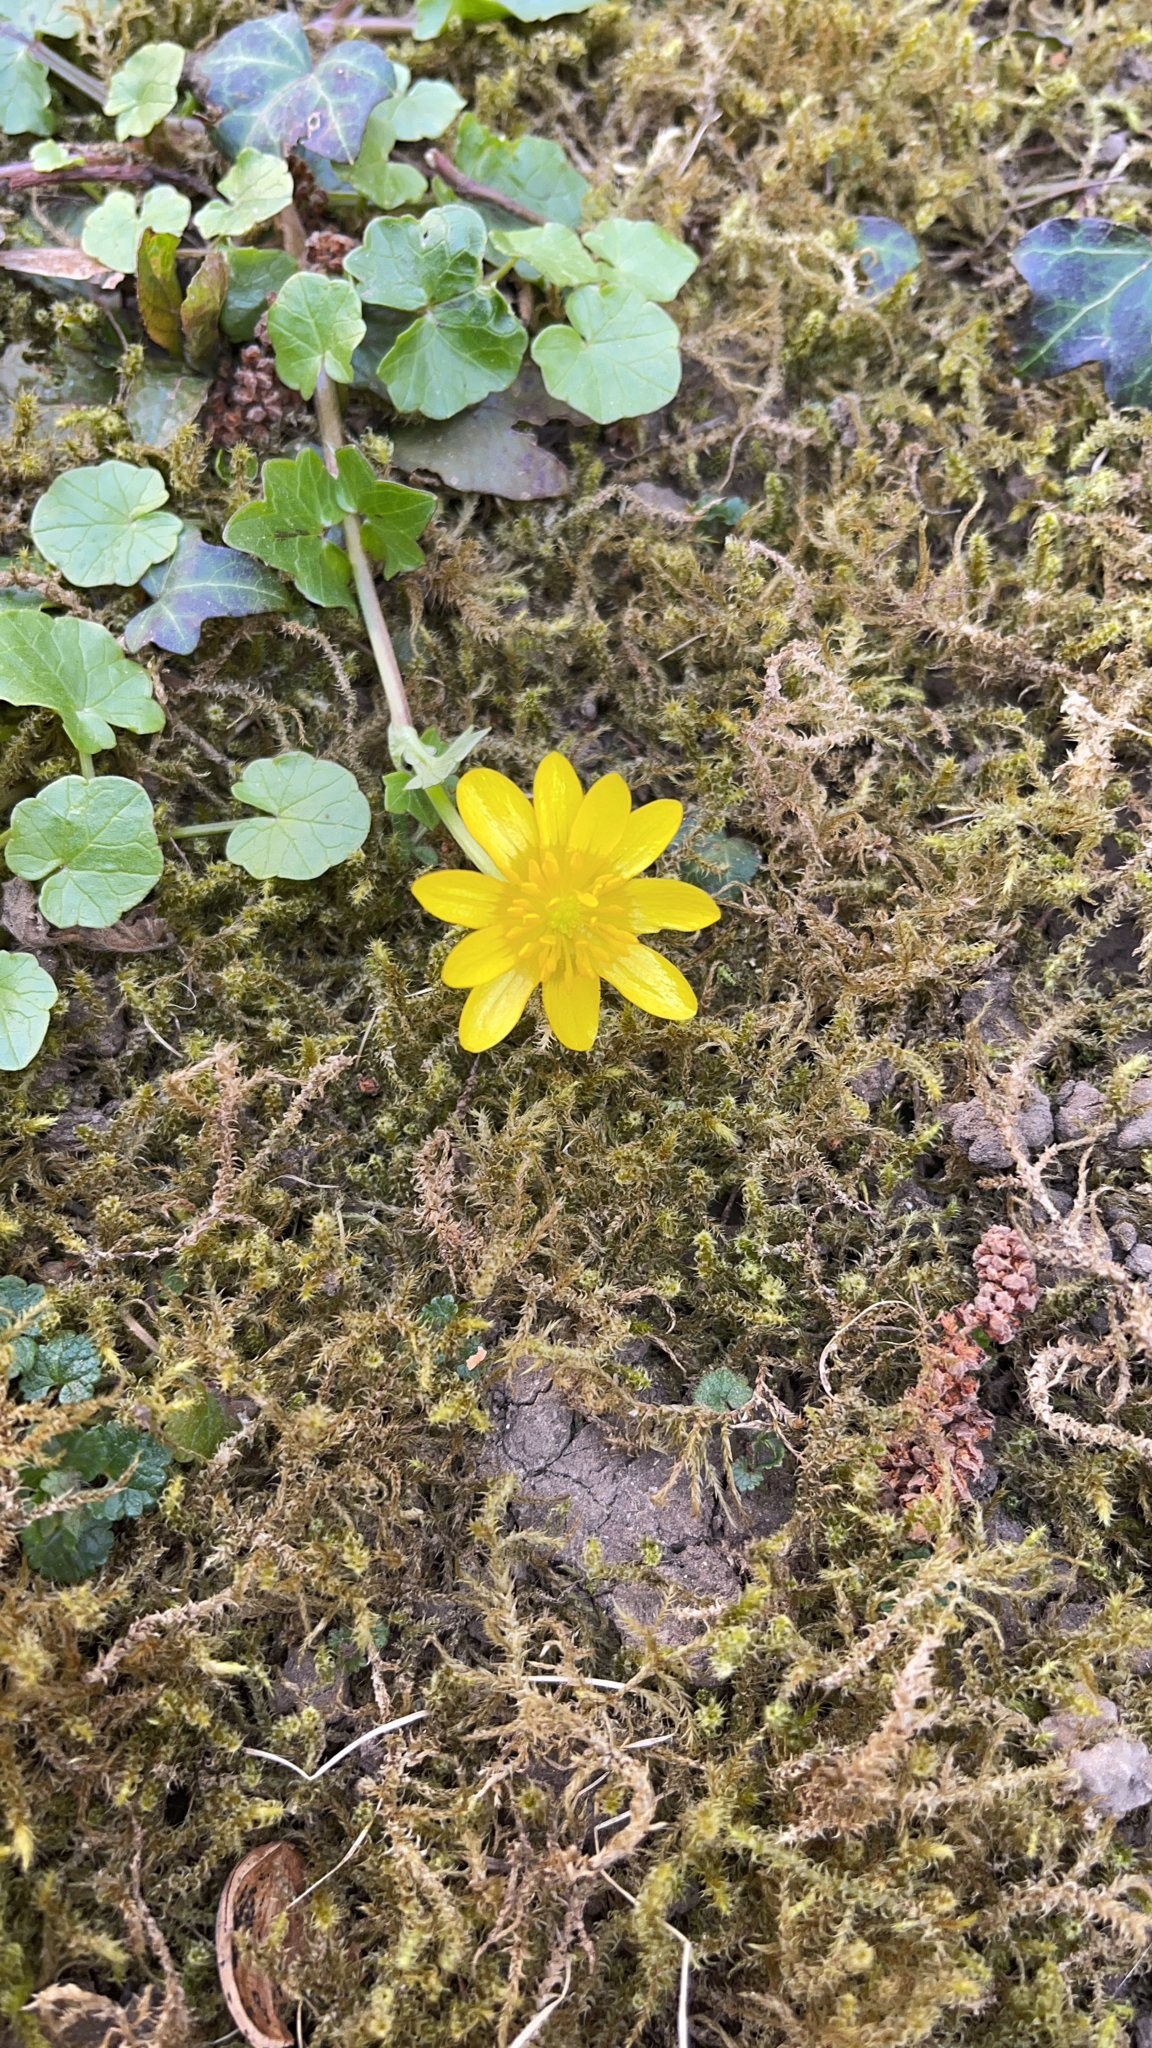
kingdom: Plantae
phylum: Tracheophyta
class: Magnoliopsida
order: Ranunculales
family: Ranunculaceae
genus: Ficaria
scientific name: Ficaria verna
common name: Lesser celandine
